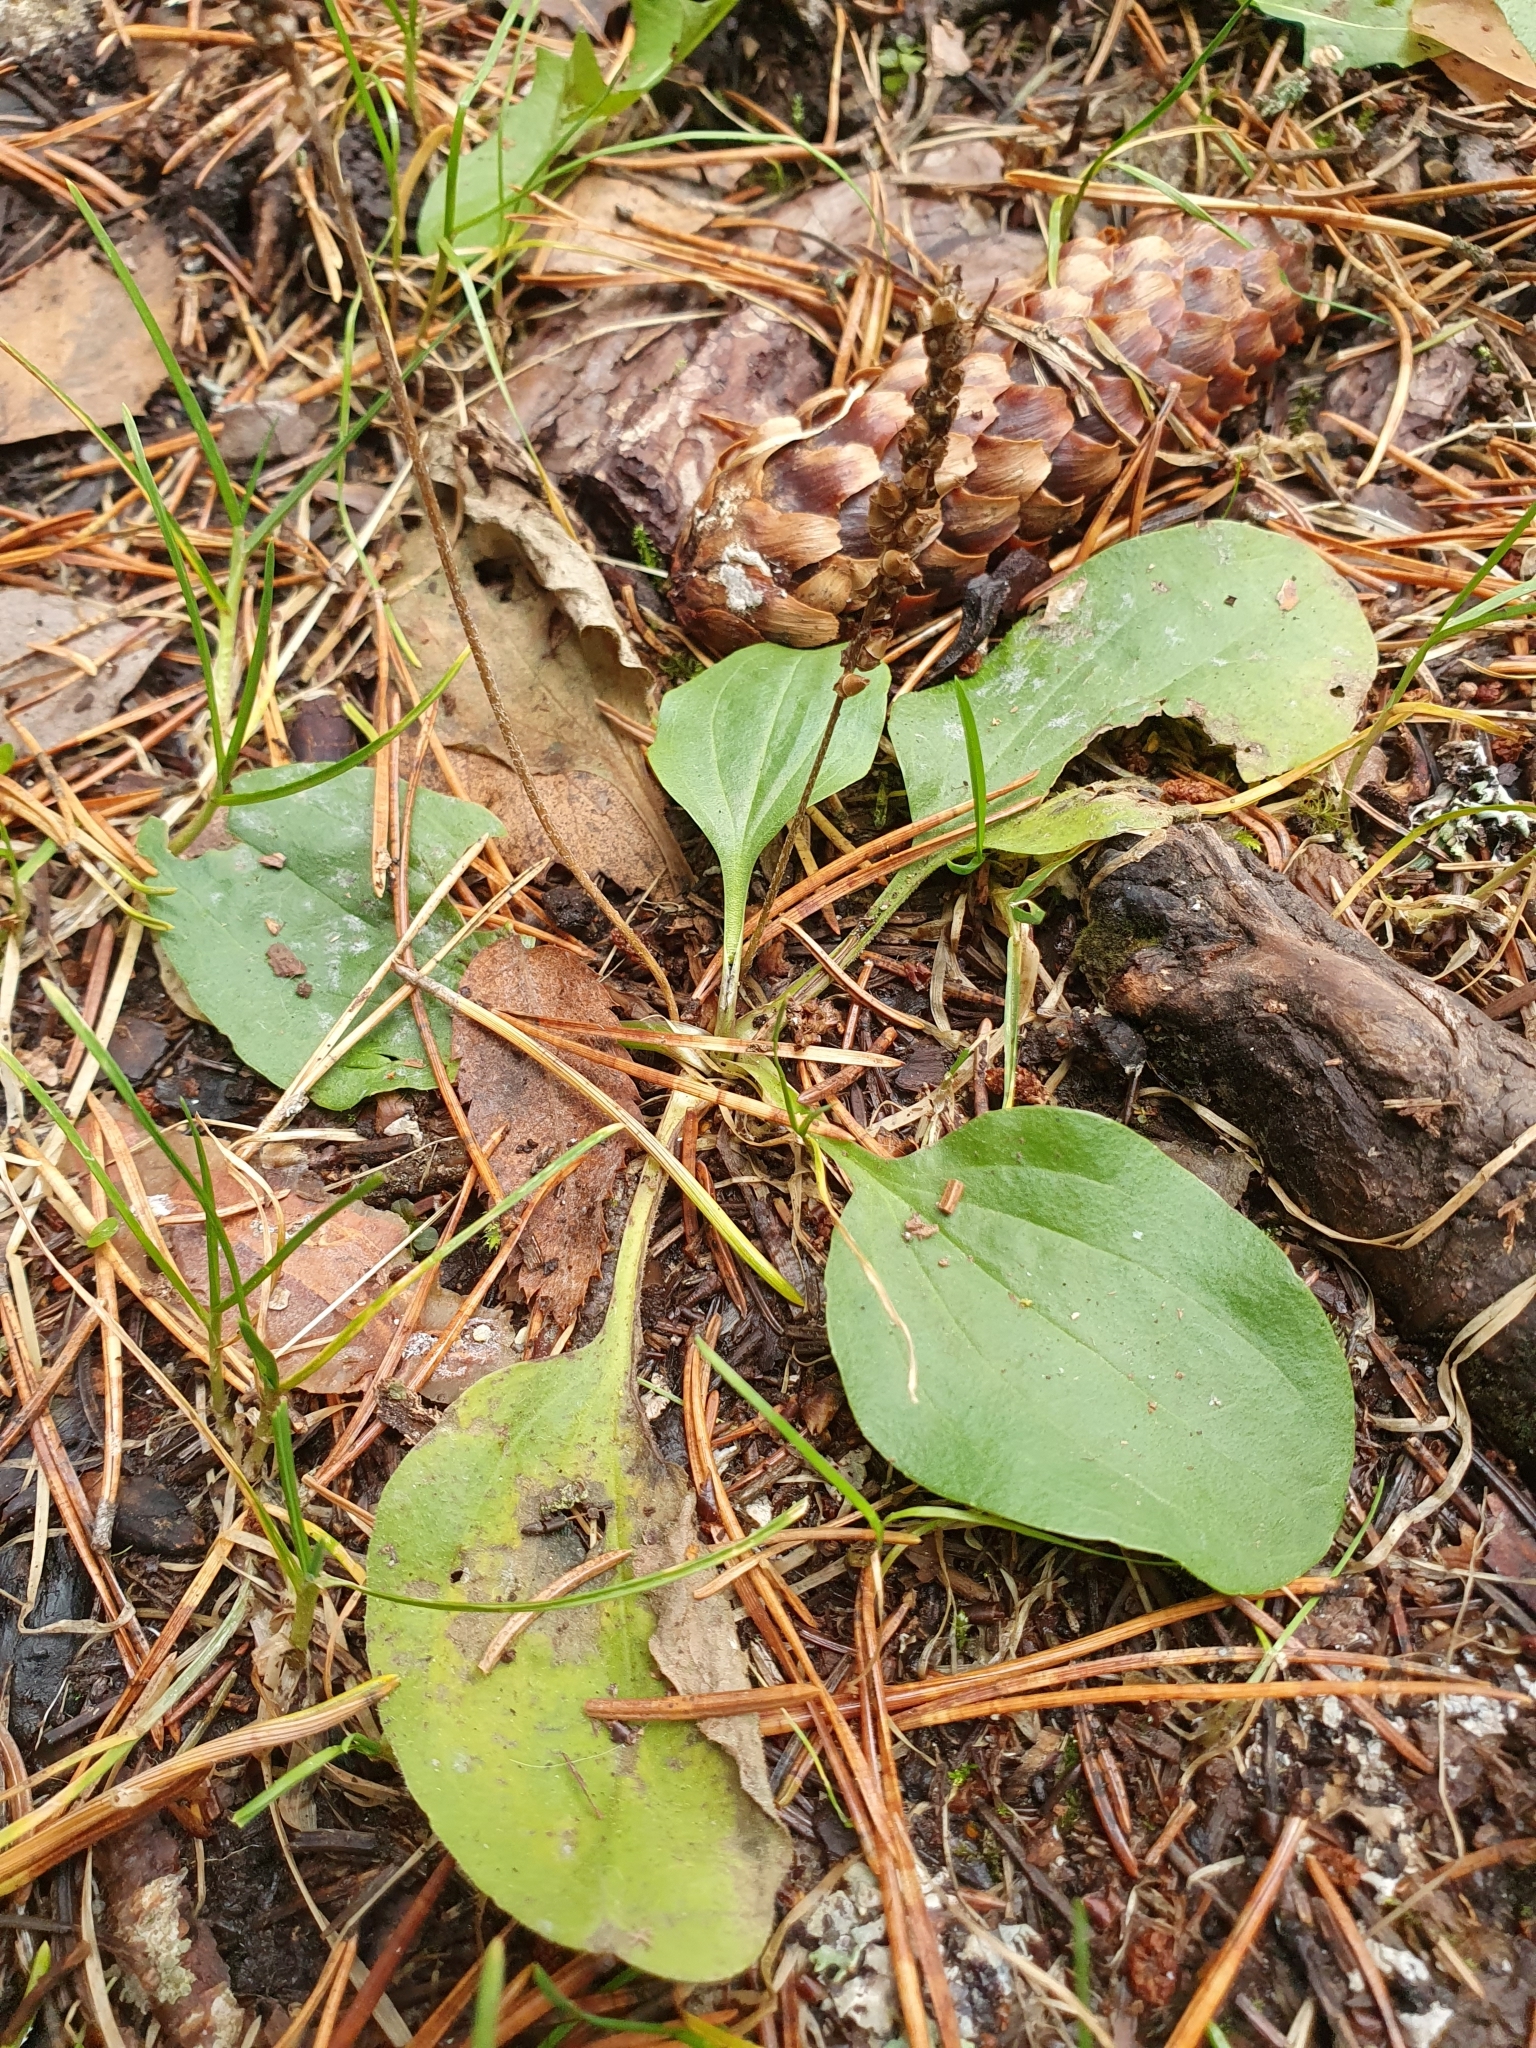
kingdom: Plantae
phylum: Tracheophyta
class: Magnoliopsida
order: Lamiales
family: Plantaginaceae
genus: Plantago
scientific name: Plantago major
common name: Common plantain
